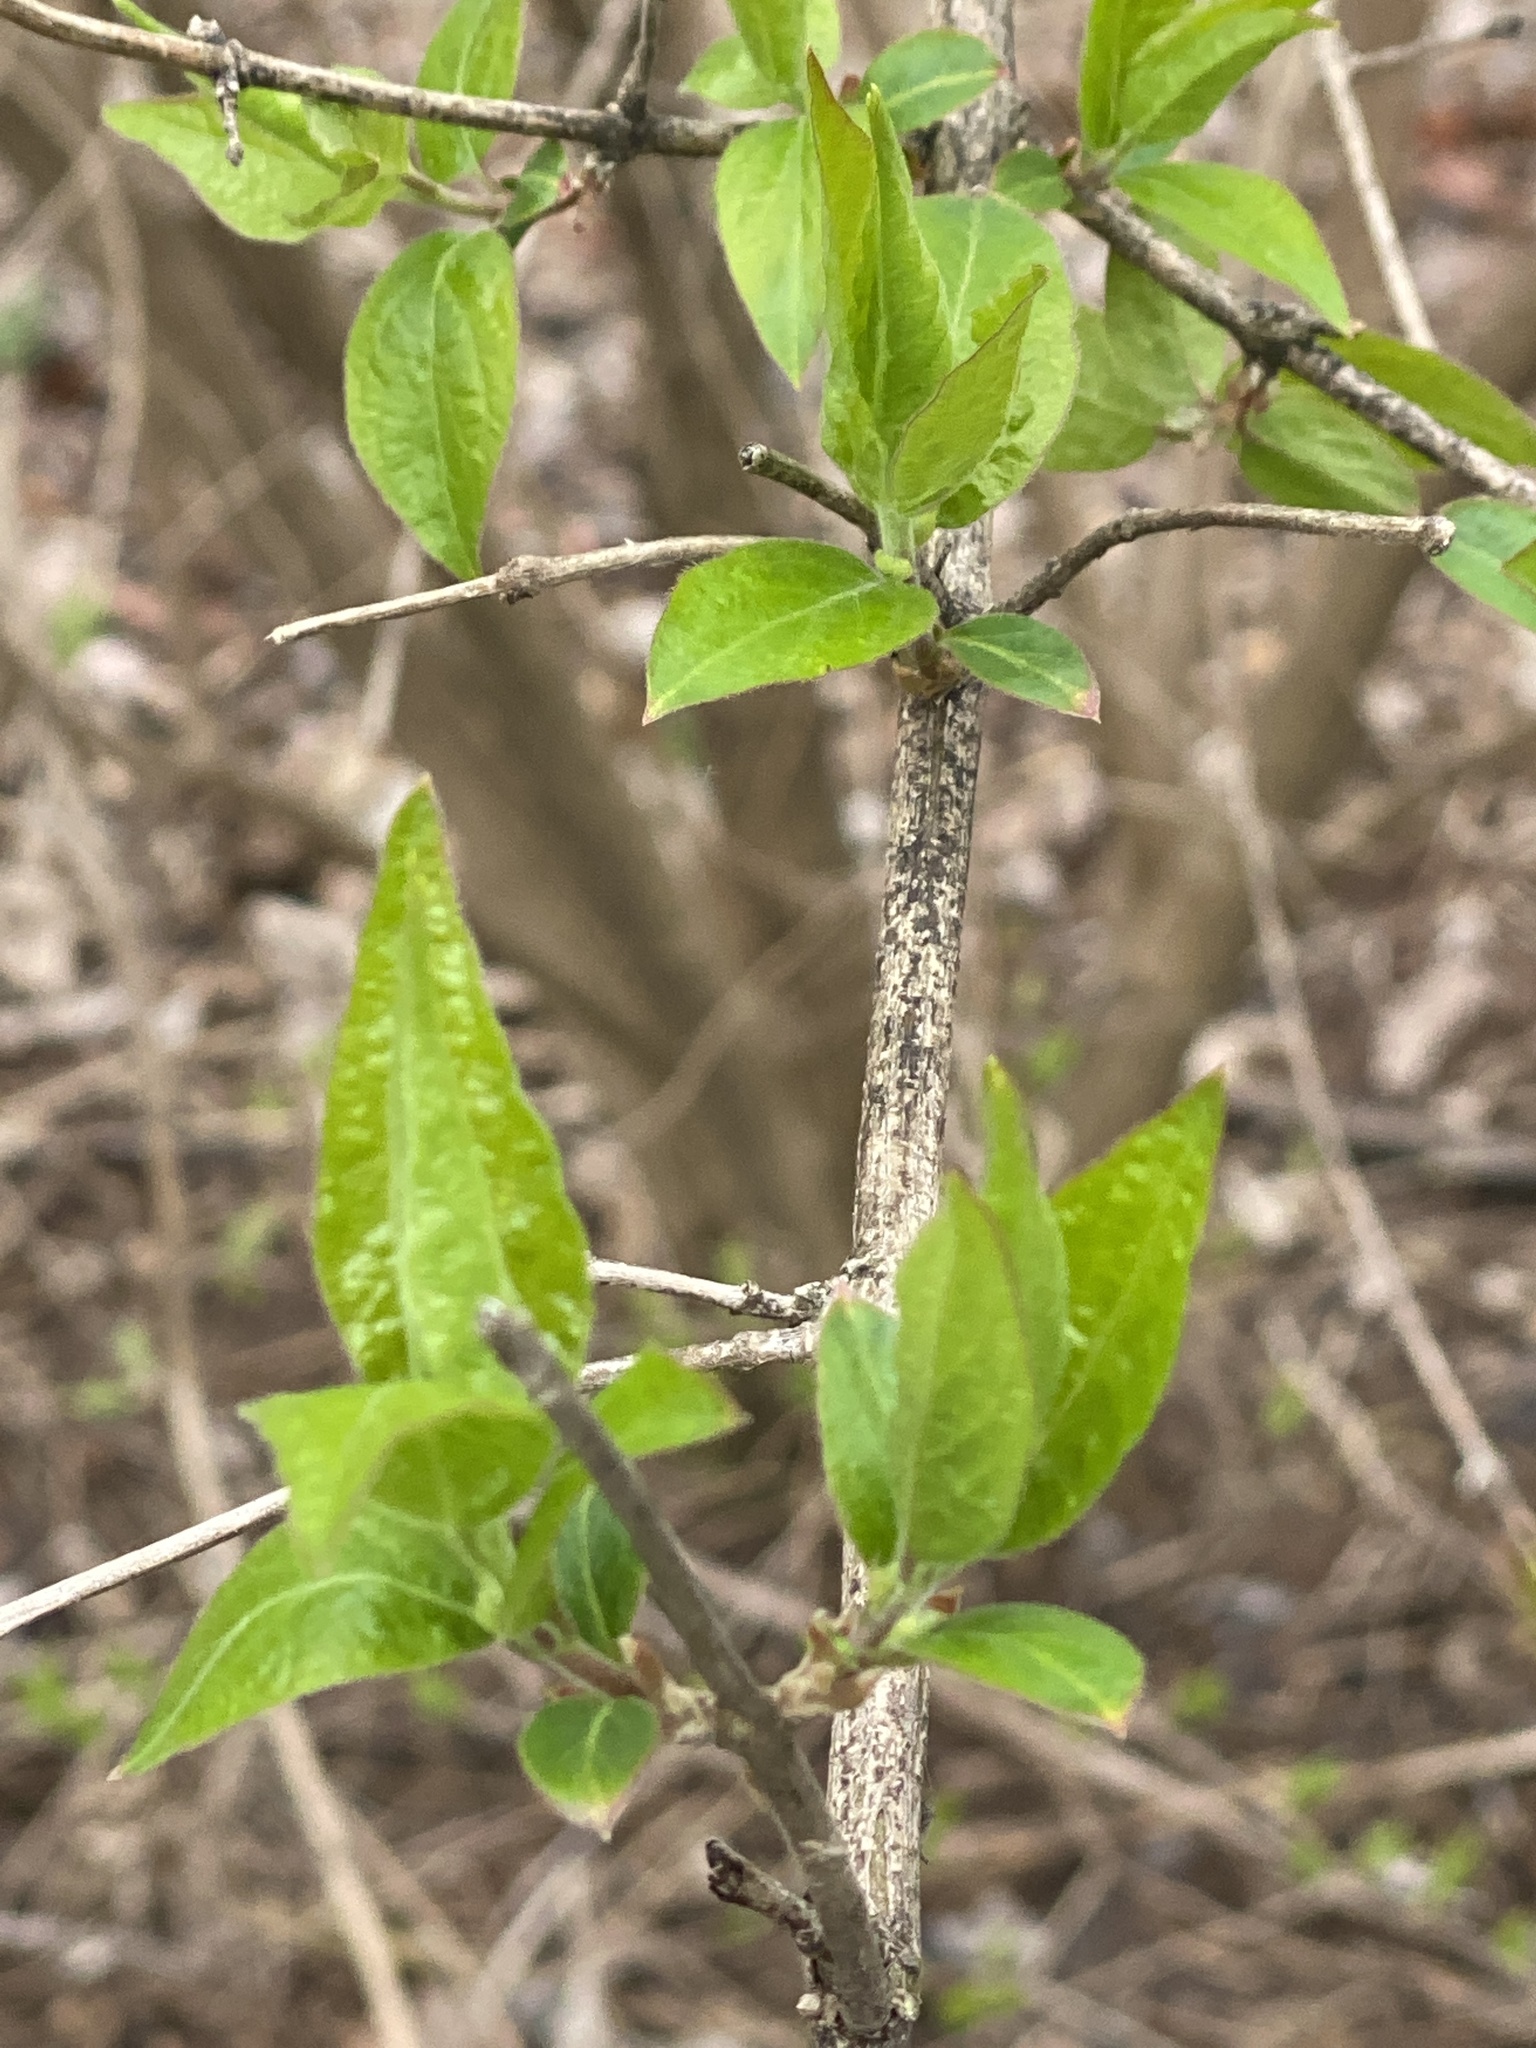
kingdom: Plantae
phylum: Tracheophyta
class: Magnoliopsida
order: Dipsacales
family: Caprifoliaceae
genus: Lonicera
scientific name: Lonicera maackii
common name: Amur honeysuckle
